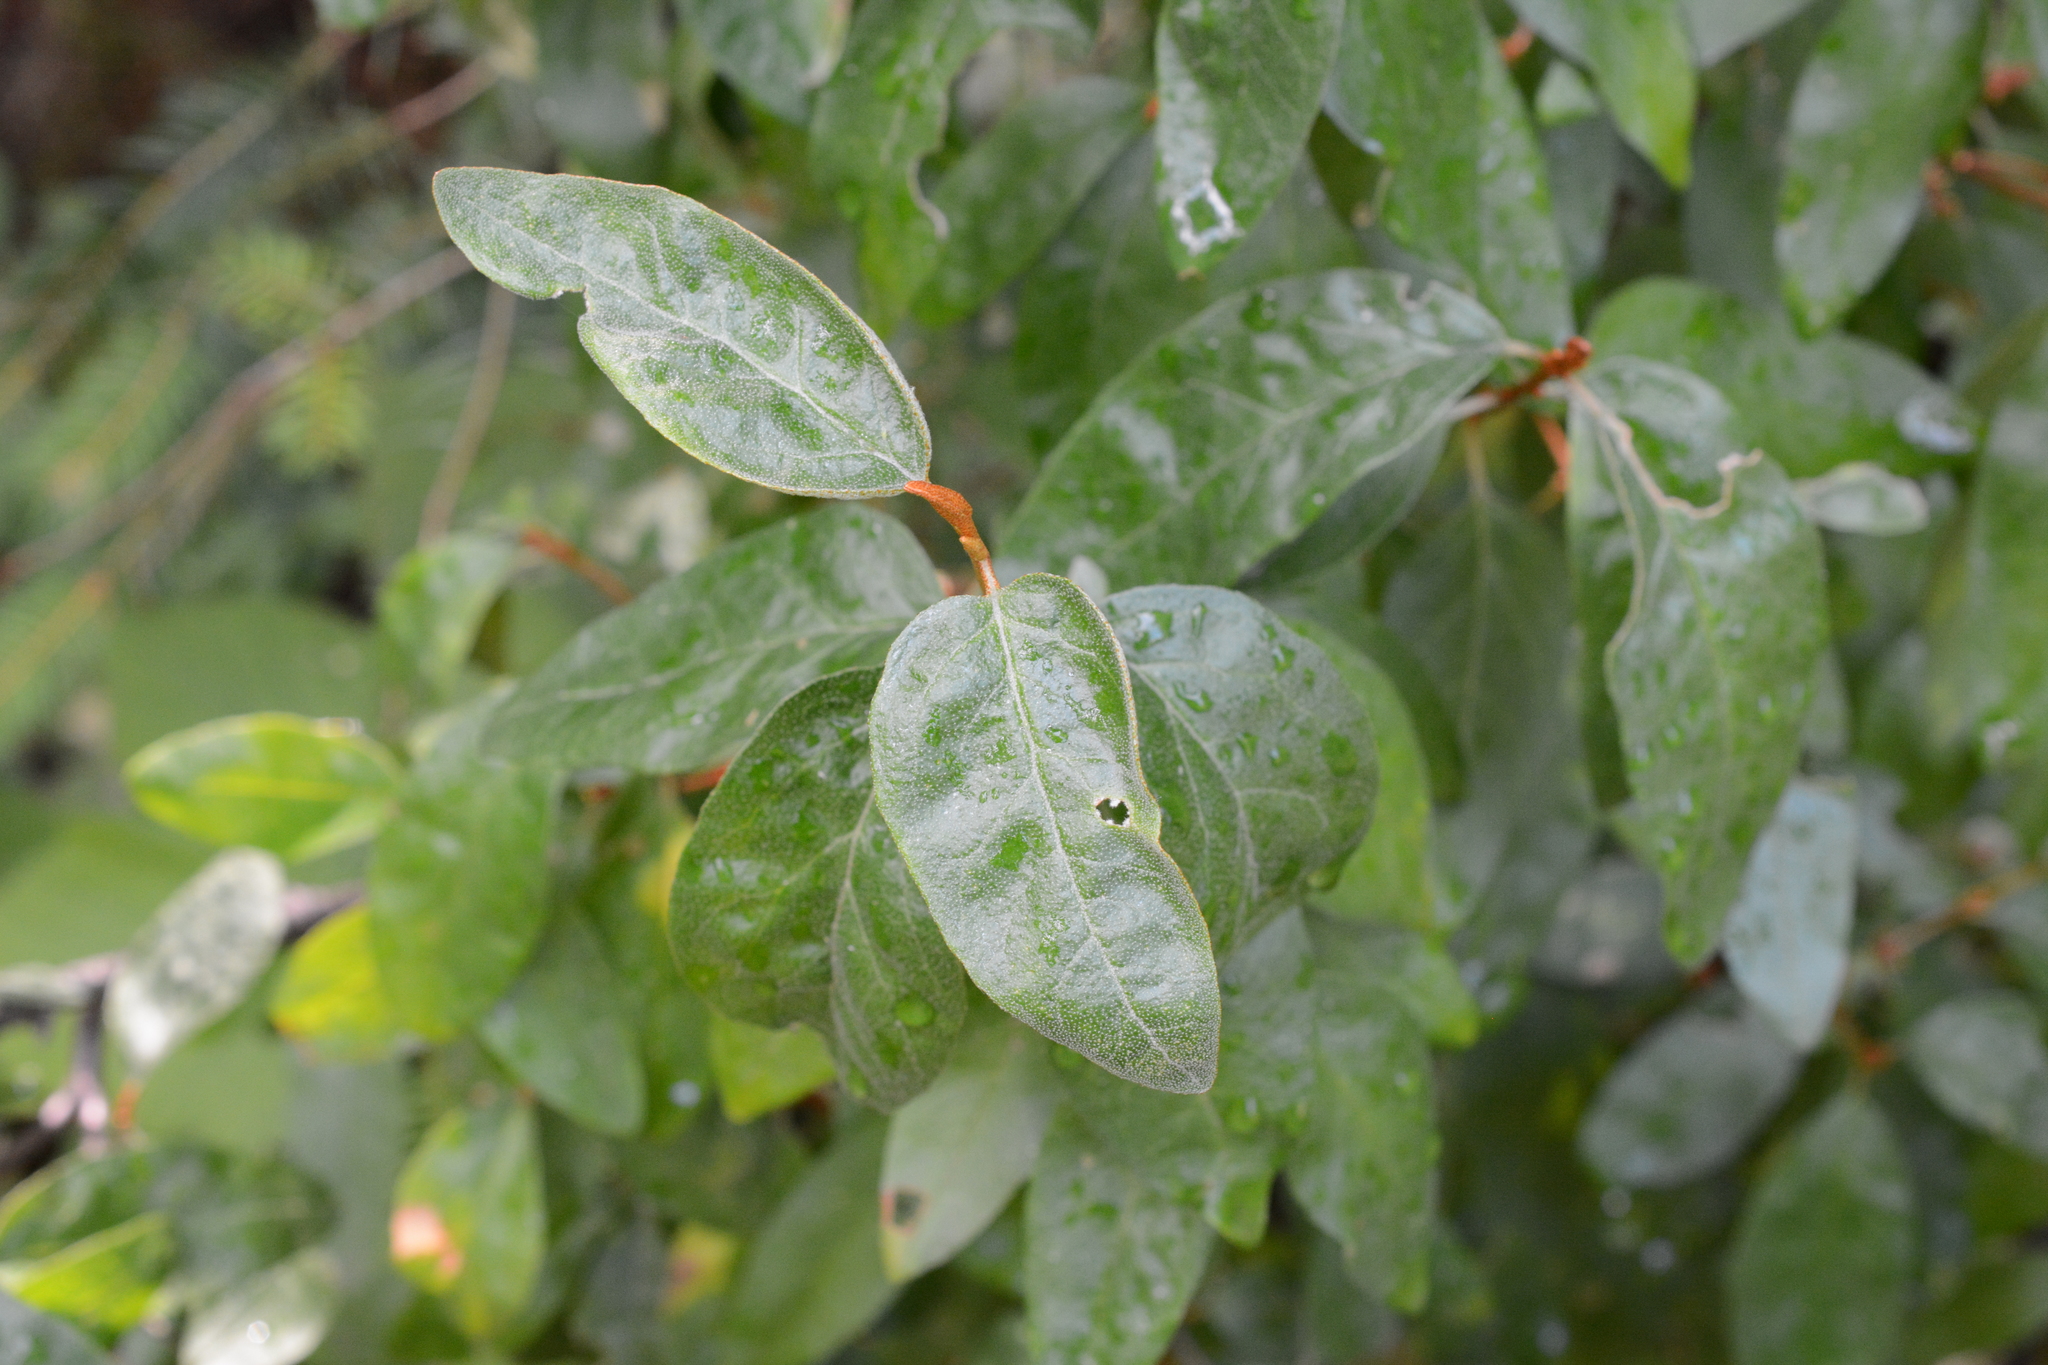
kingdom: Plantae
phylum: Tracheophyta
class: Magnoliopsida
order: Rosales
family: Elaeagnaceae
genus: Shepherdia
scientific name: Shepherdia canadensis
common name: Soapberry
